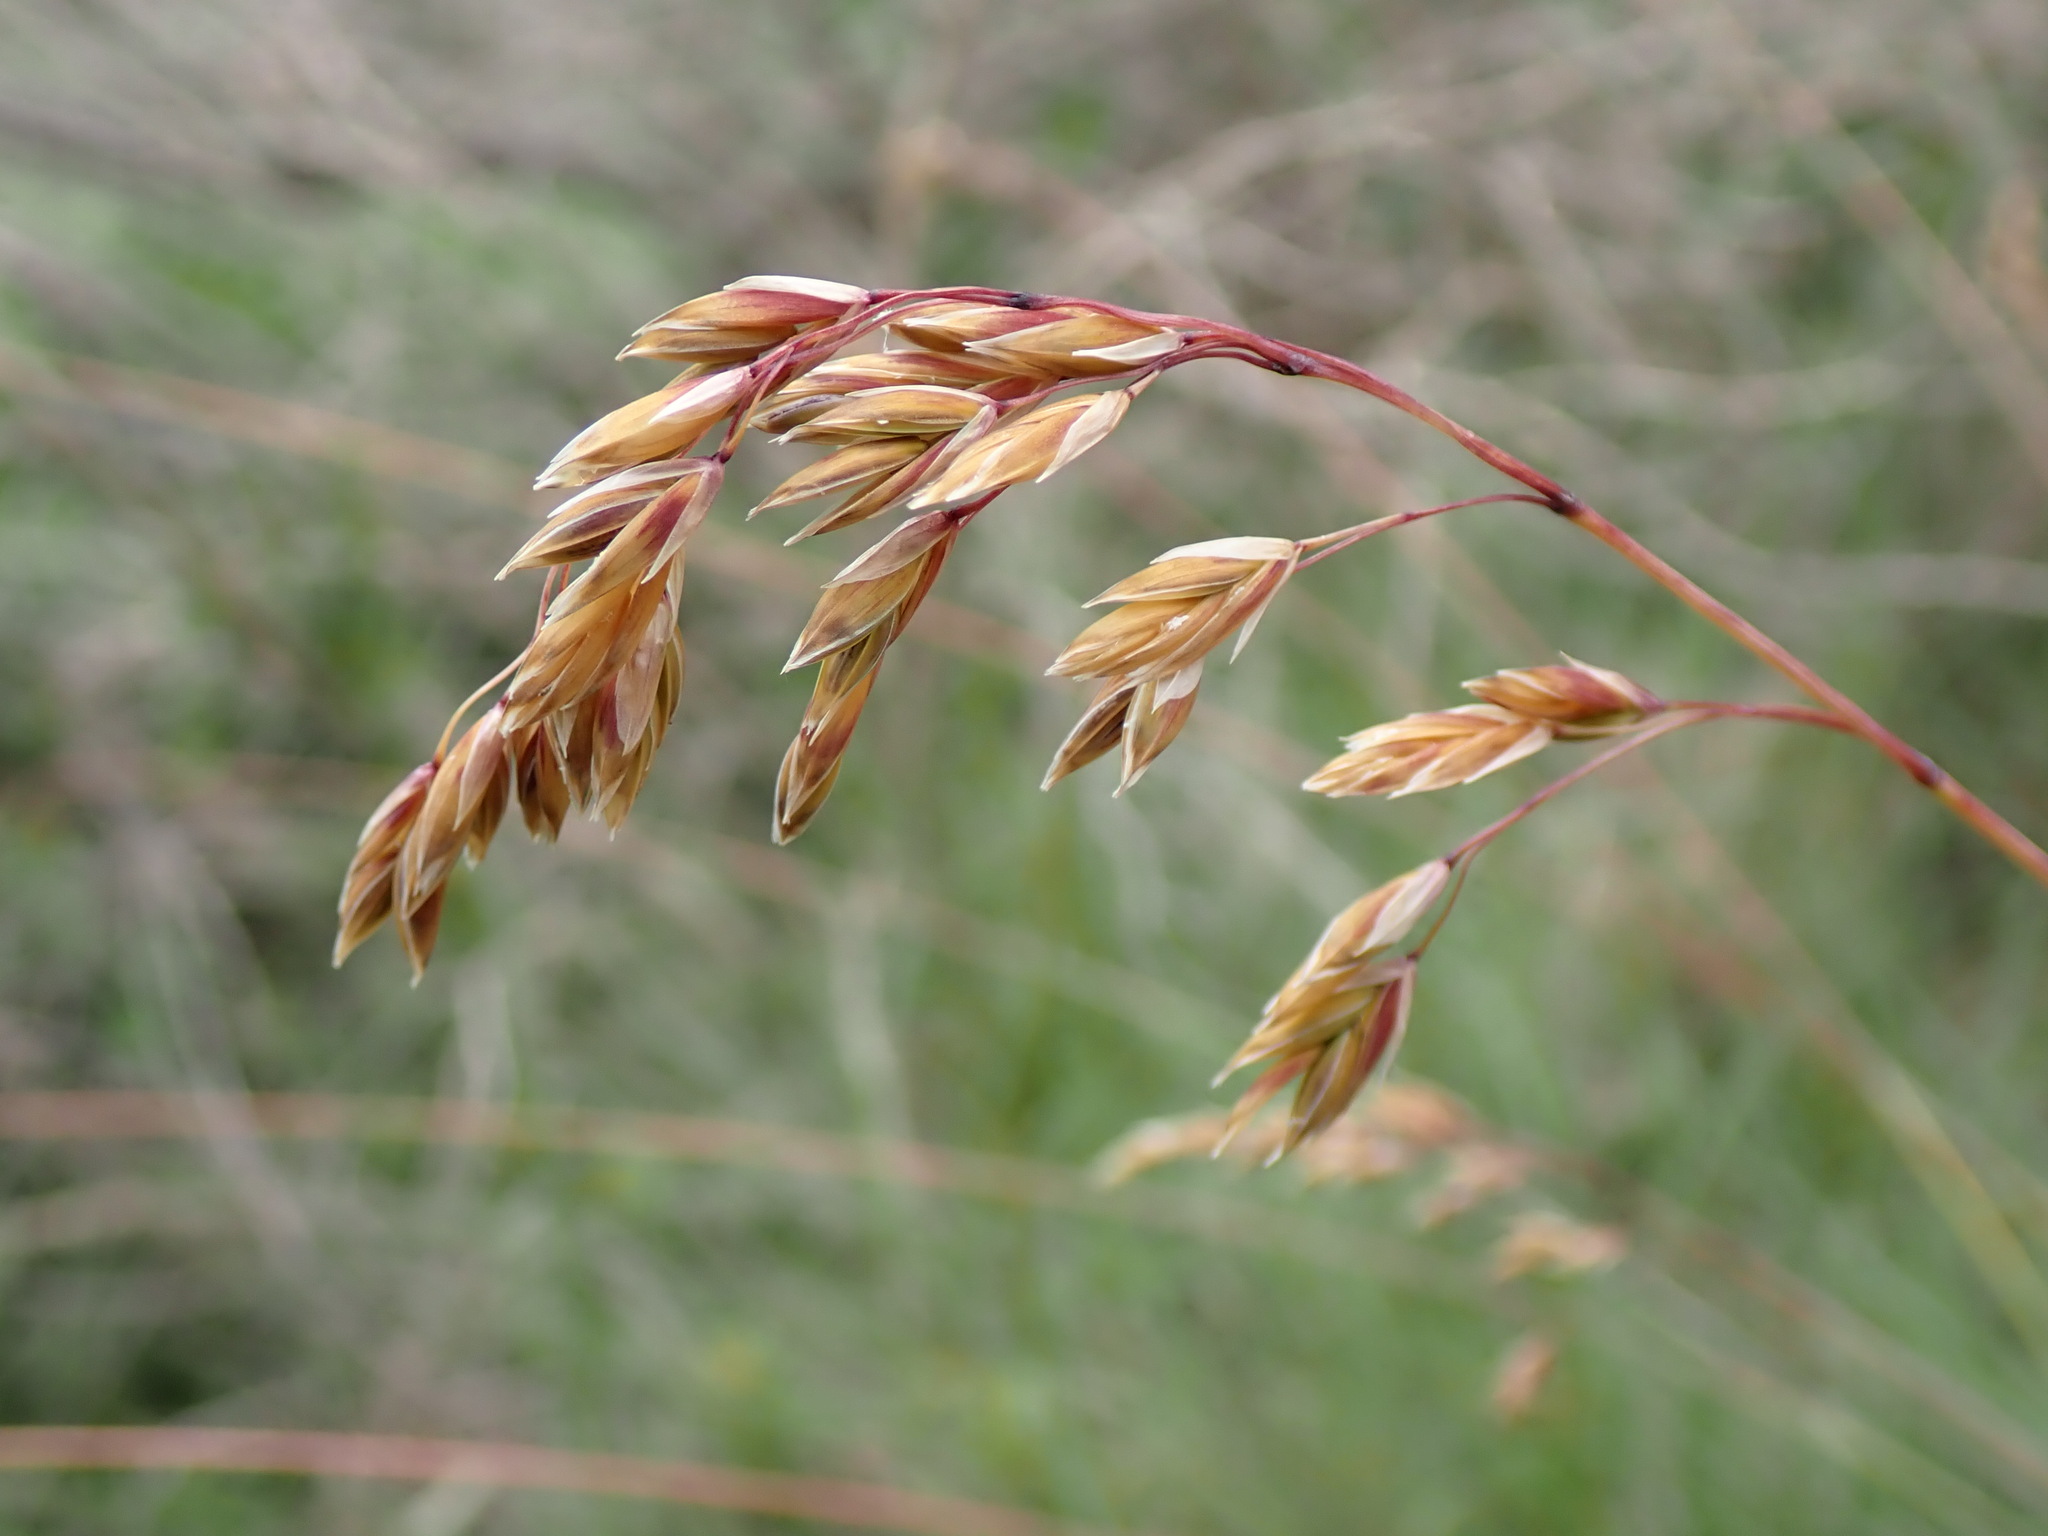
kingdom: Plantae
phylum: Tracheophyta
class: Liliopsida
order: Poales
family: Poaceae
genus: Patzkea
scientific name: Patzkea paniculata
